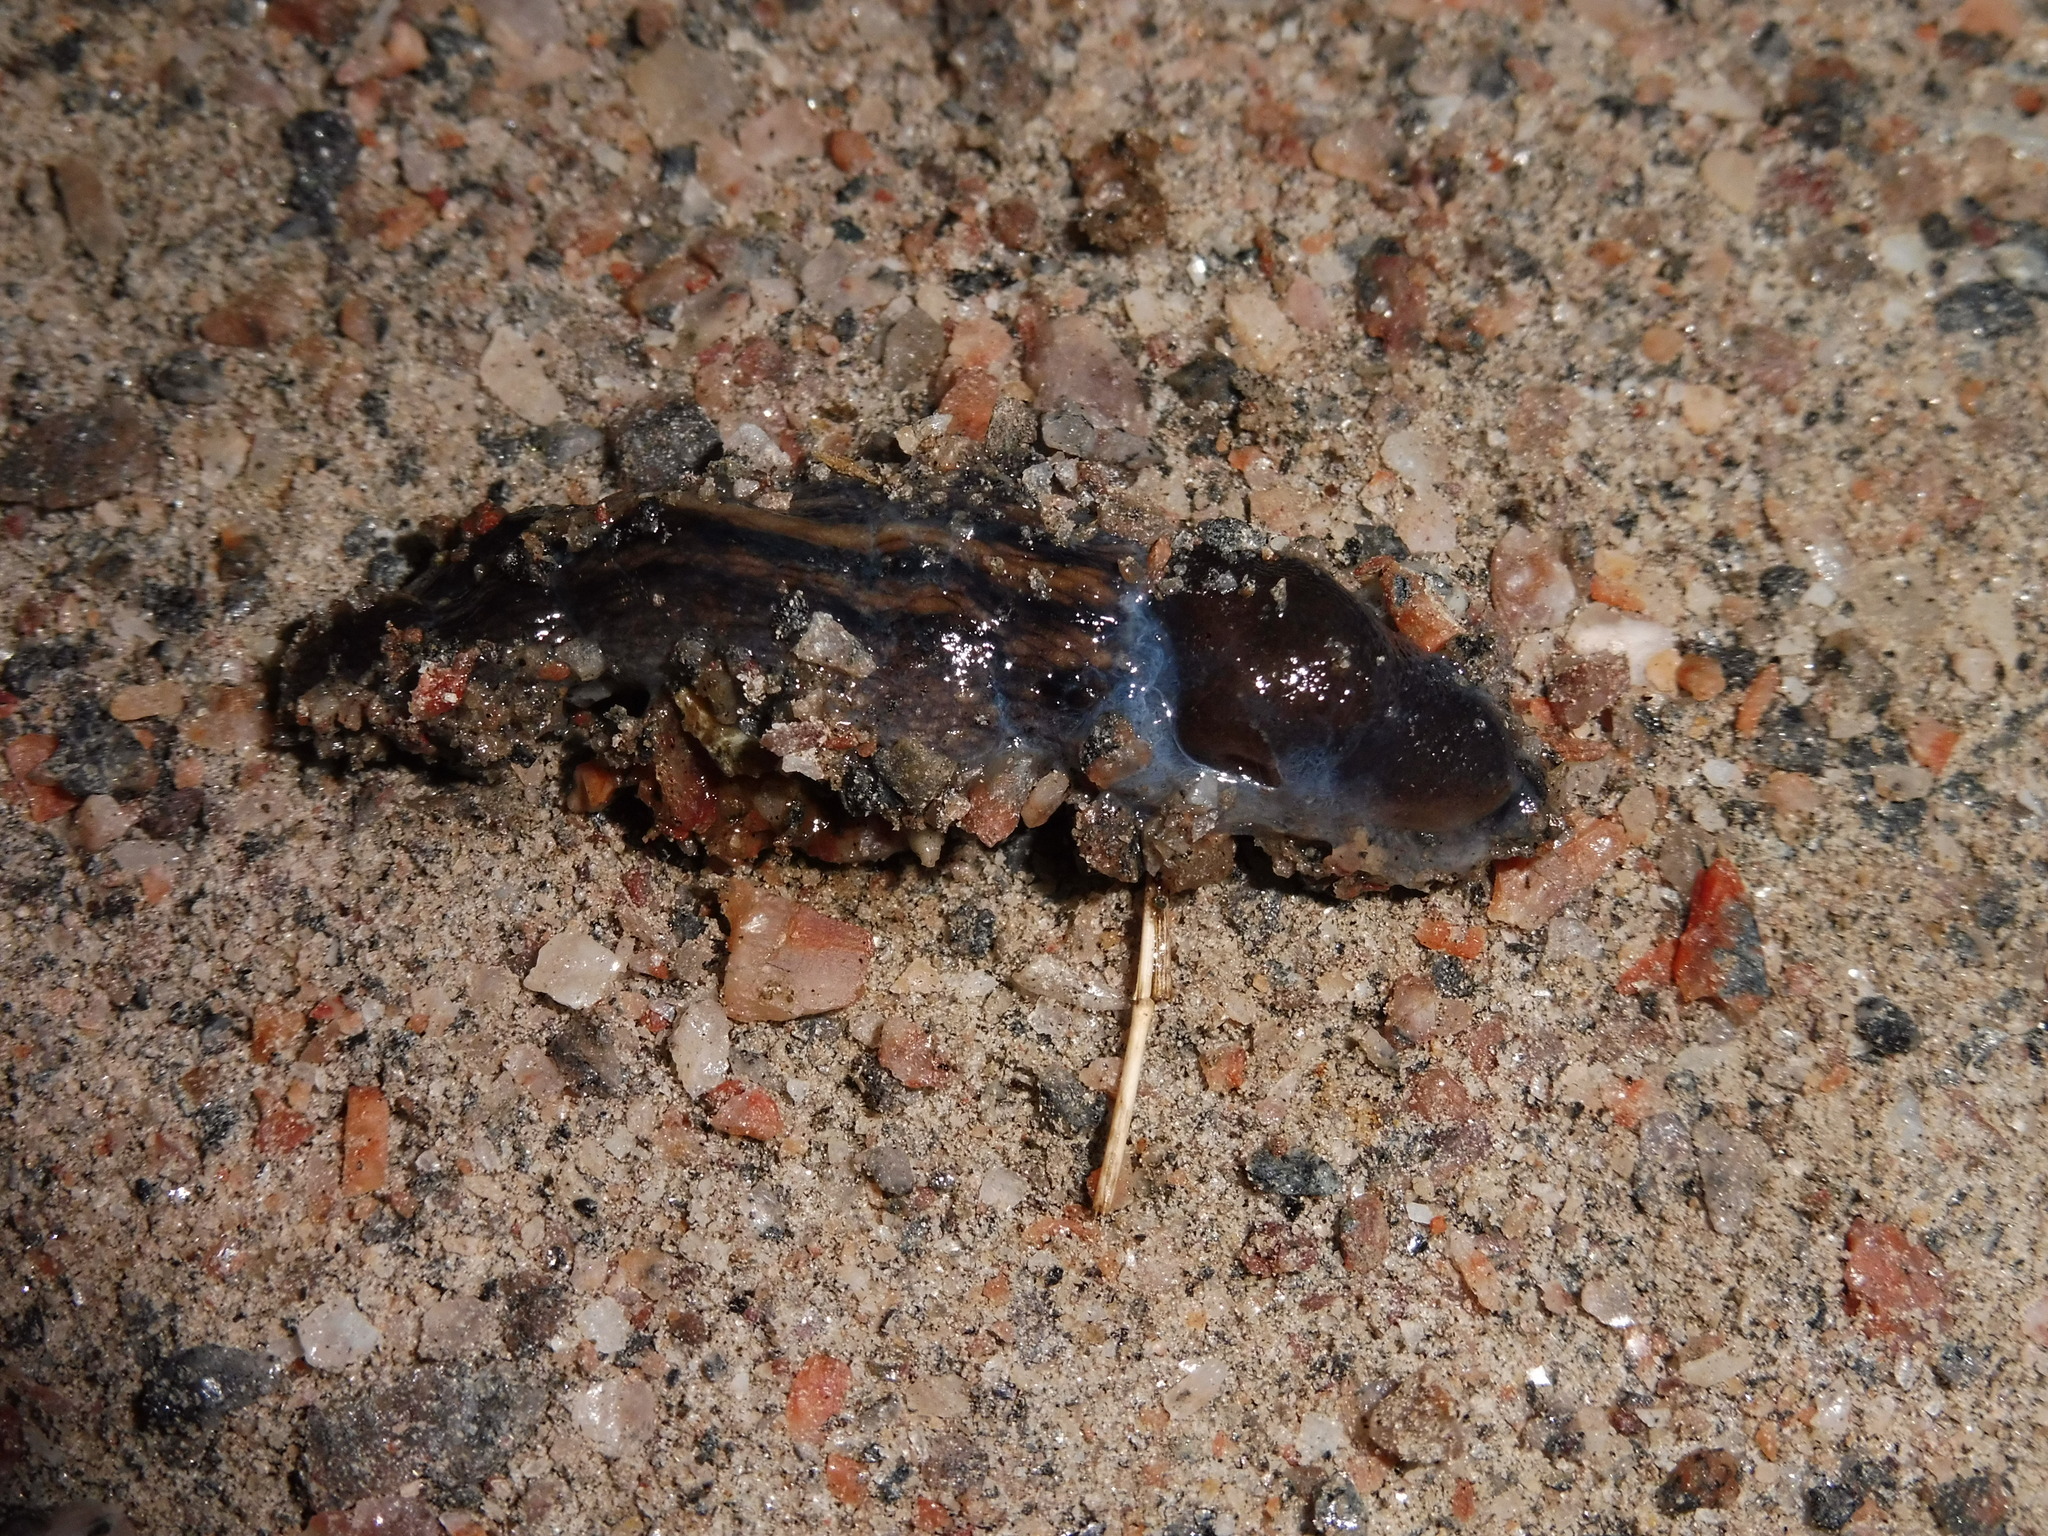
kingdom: Animalia
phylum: Mollusca
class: Gastropoda
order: Stylommatophora
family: Limacidae
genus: Limax
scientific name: Limax cinereoniger
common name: Ash-black slug
